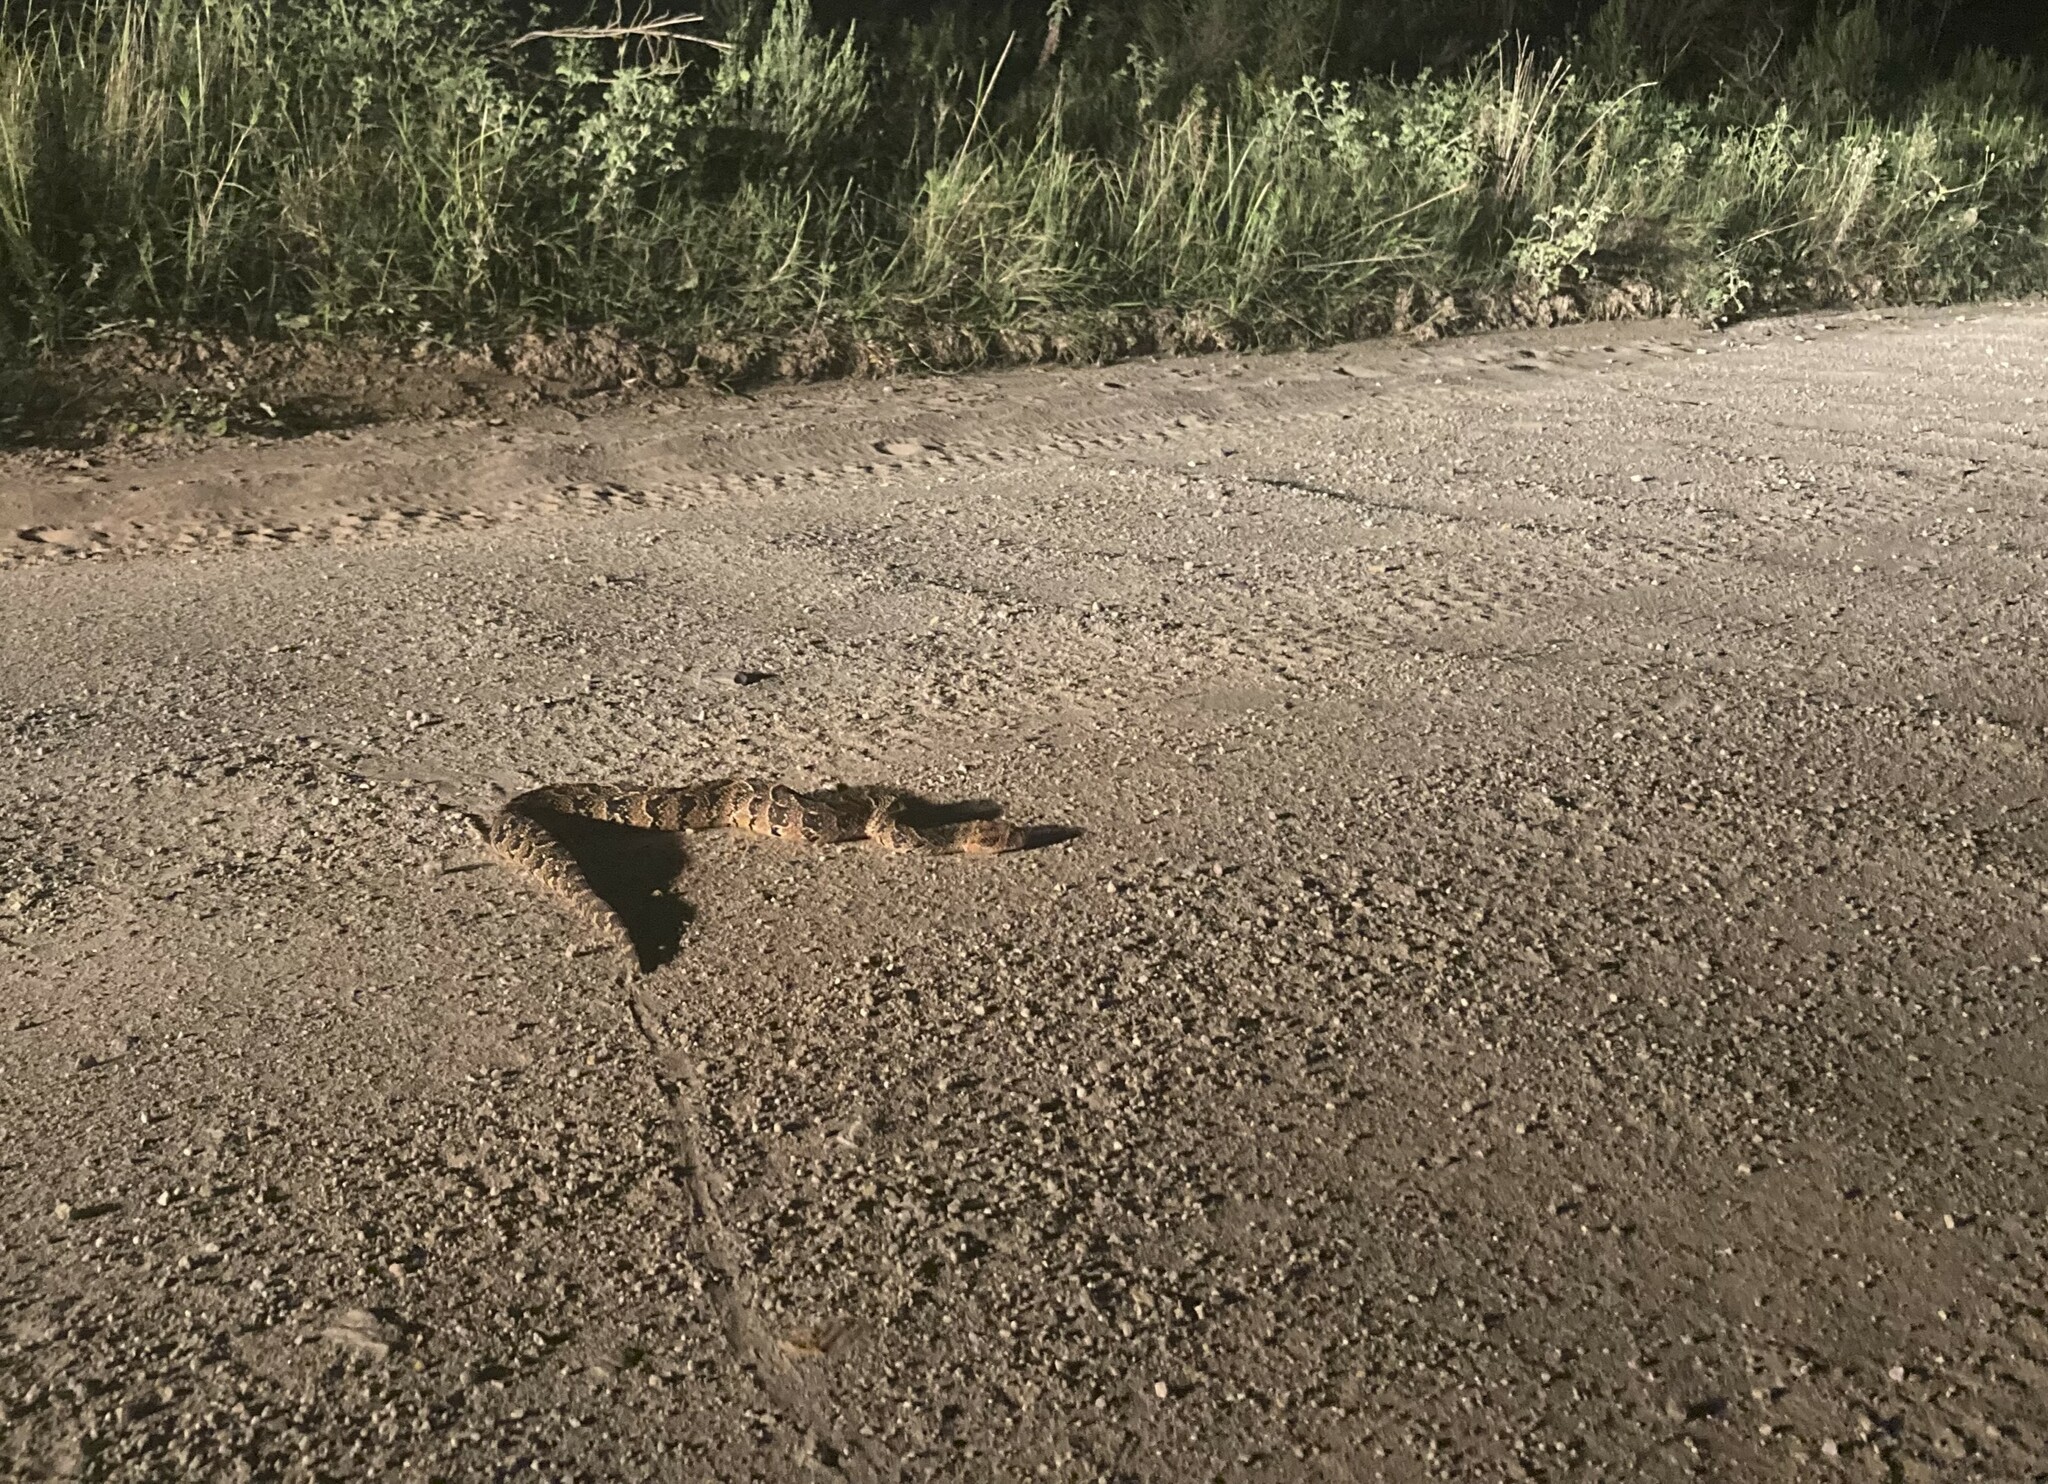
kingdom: Animalia
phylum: Chordata
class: Squamata
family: Viperidae
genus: Bitis
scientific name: Bitis arietans
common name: Puff adder
